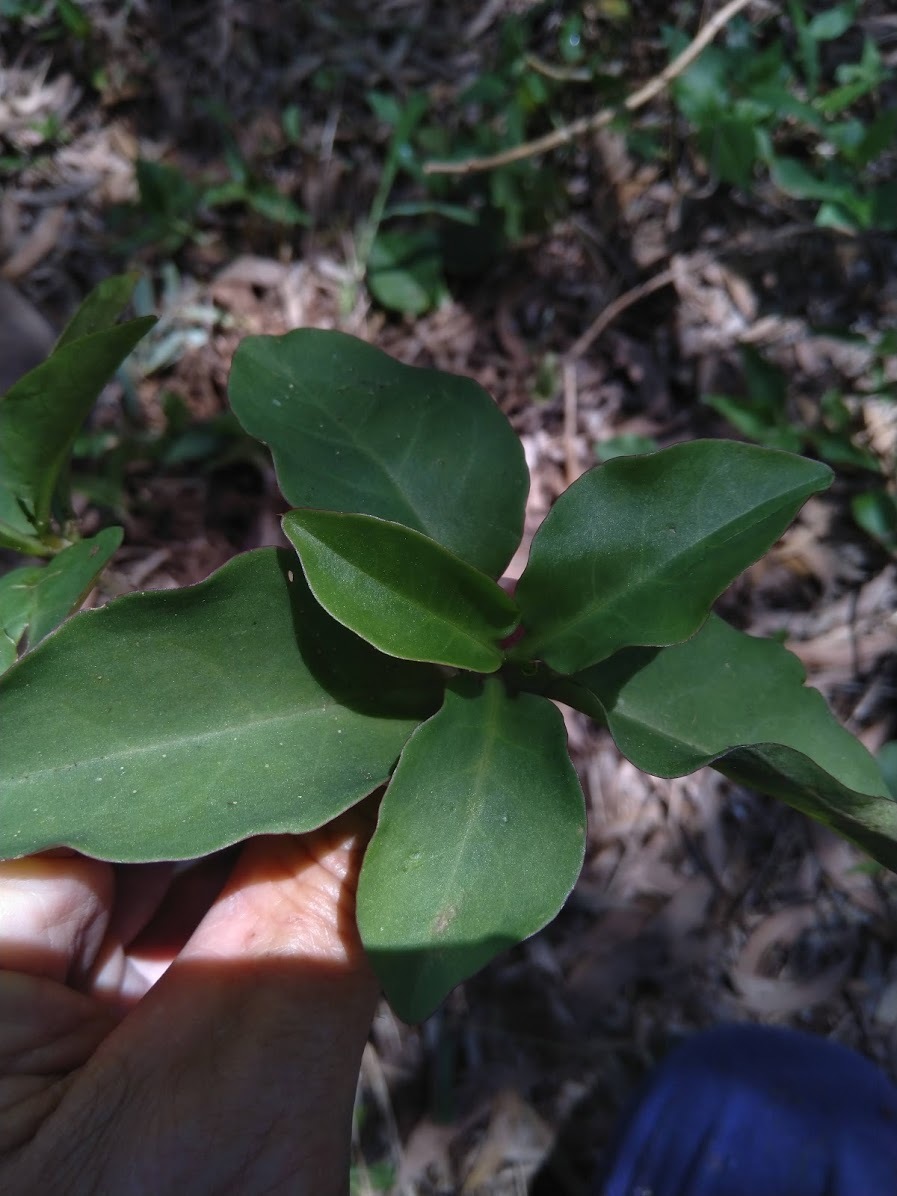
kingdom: Plantae
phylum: Tracheophyta
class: Magnoliopsida
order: Caryophyllales
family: Basellaceae
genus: Anredera
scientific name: Anredera cordifolia
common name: Heartleaf madeiravine
